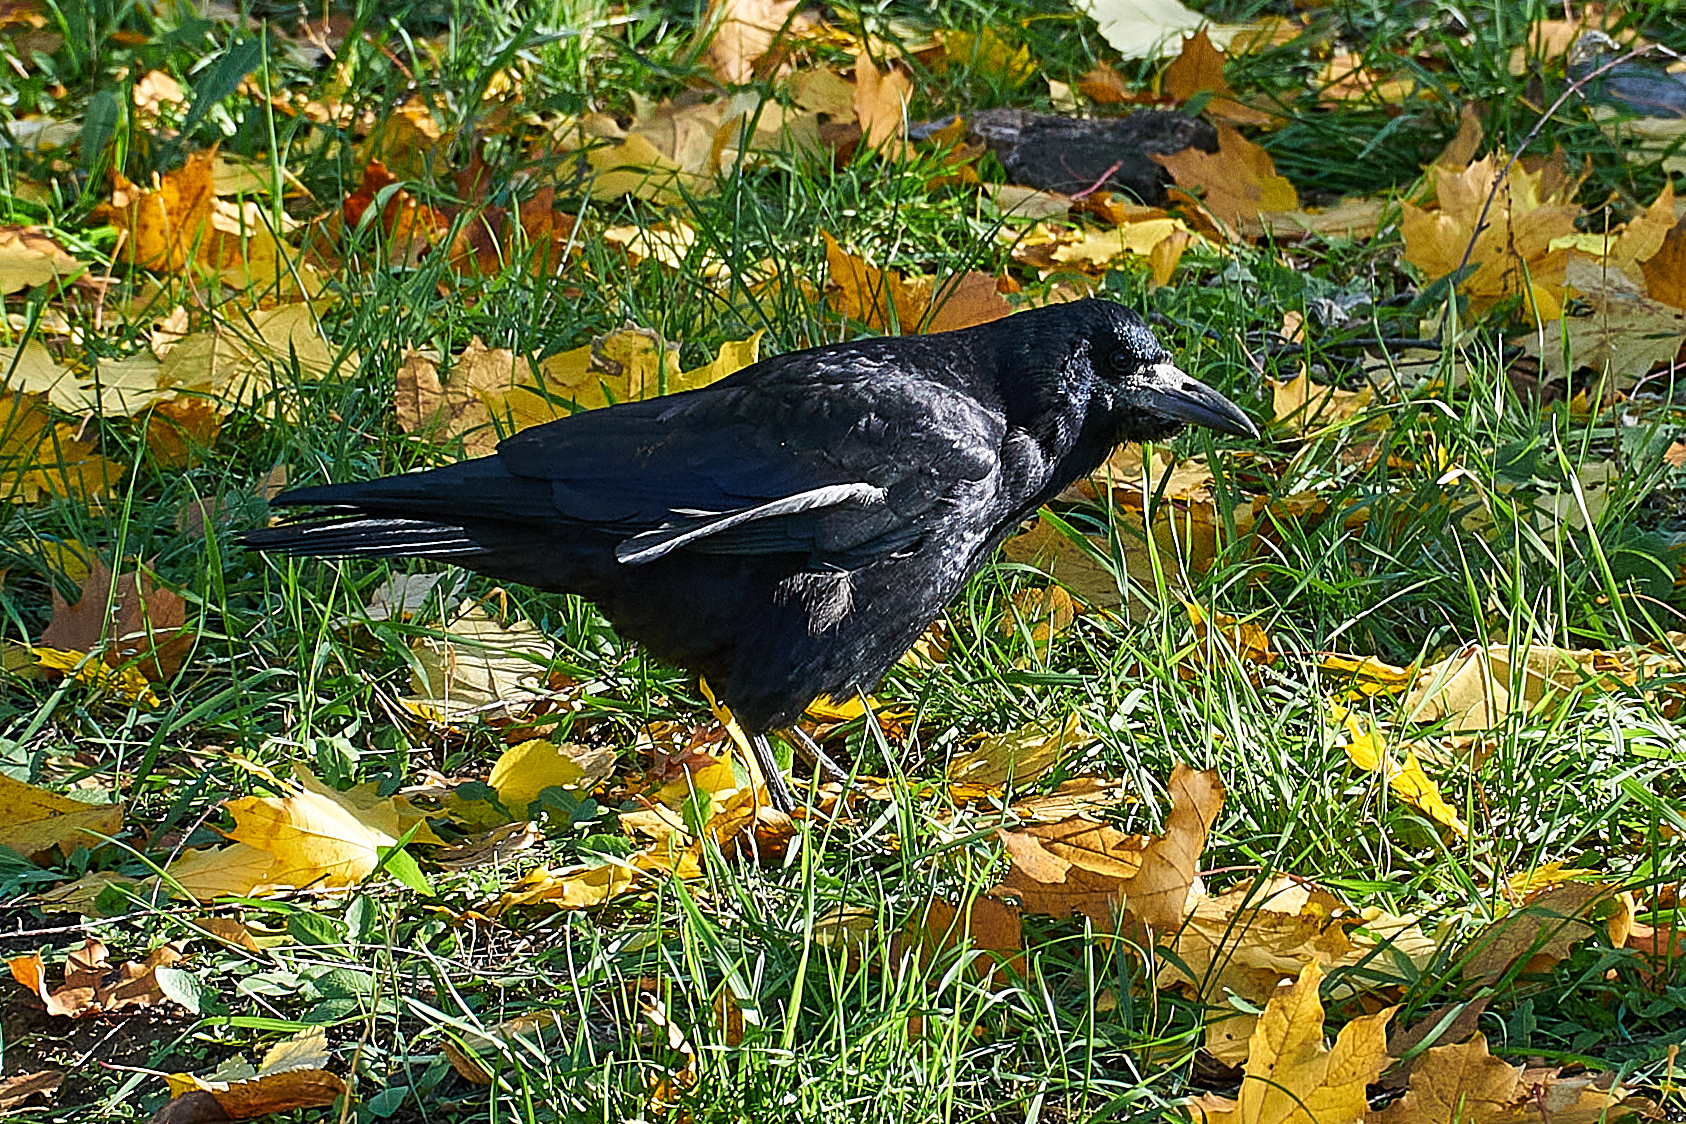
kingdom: Animalia
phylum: Chordata
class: Aves
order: Passeriformes
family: Corvidae
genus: Corvus
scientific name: Corvus frugilegus
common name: Rook
